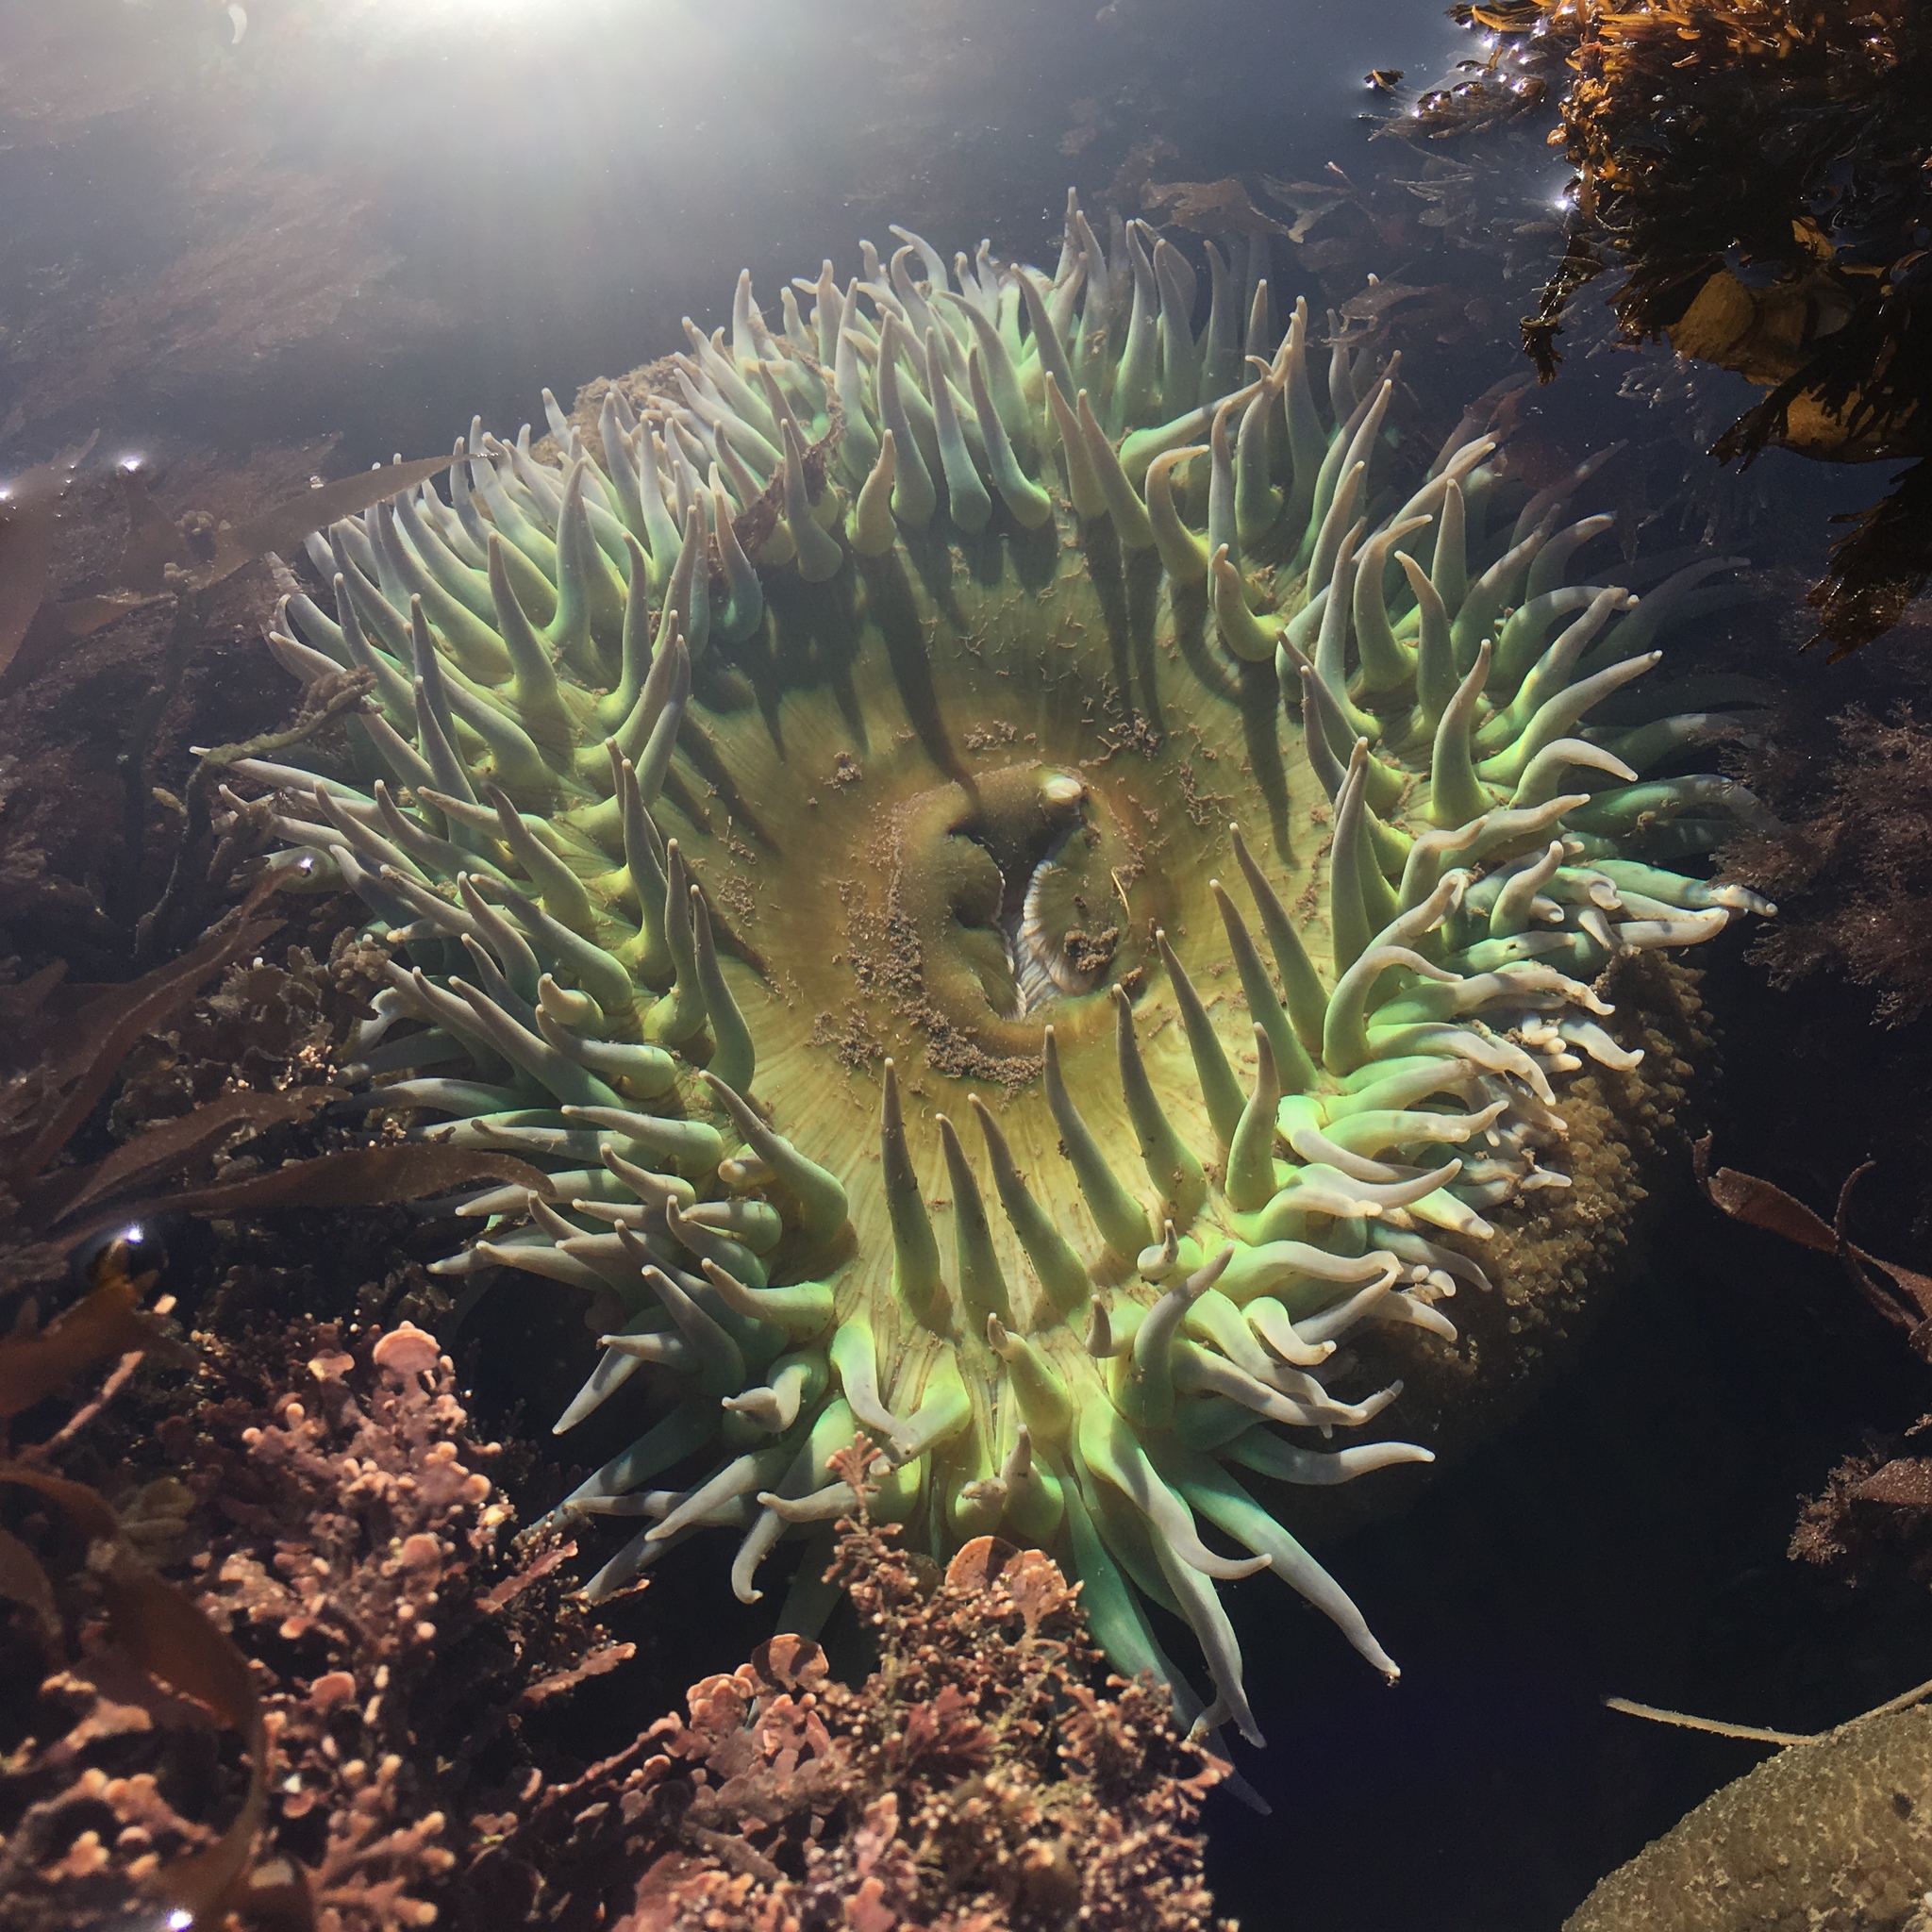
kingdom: Animalia
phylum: Cnidaria
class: Anthozoa
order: Actiniaria
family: Actiniidae
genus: Anthopleura
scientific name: Anthopleura xanthogrammica
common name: Giant green anemone
